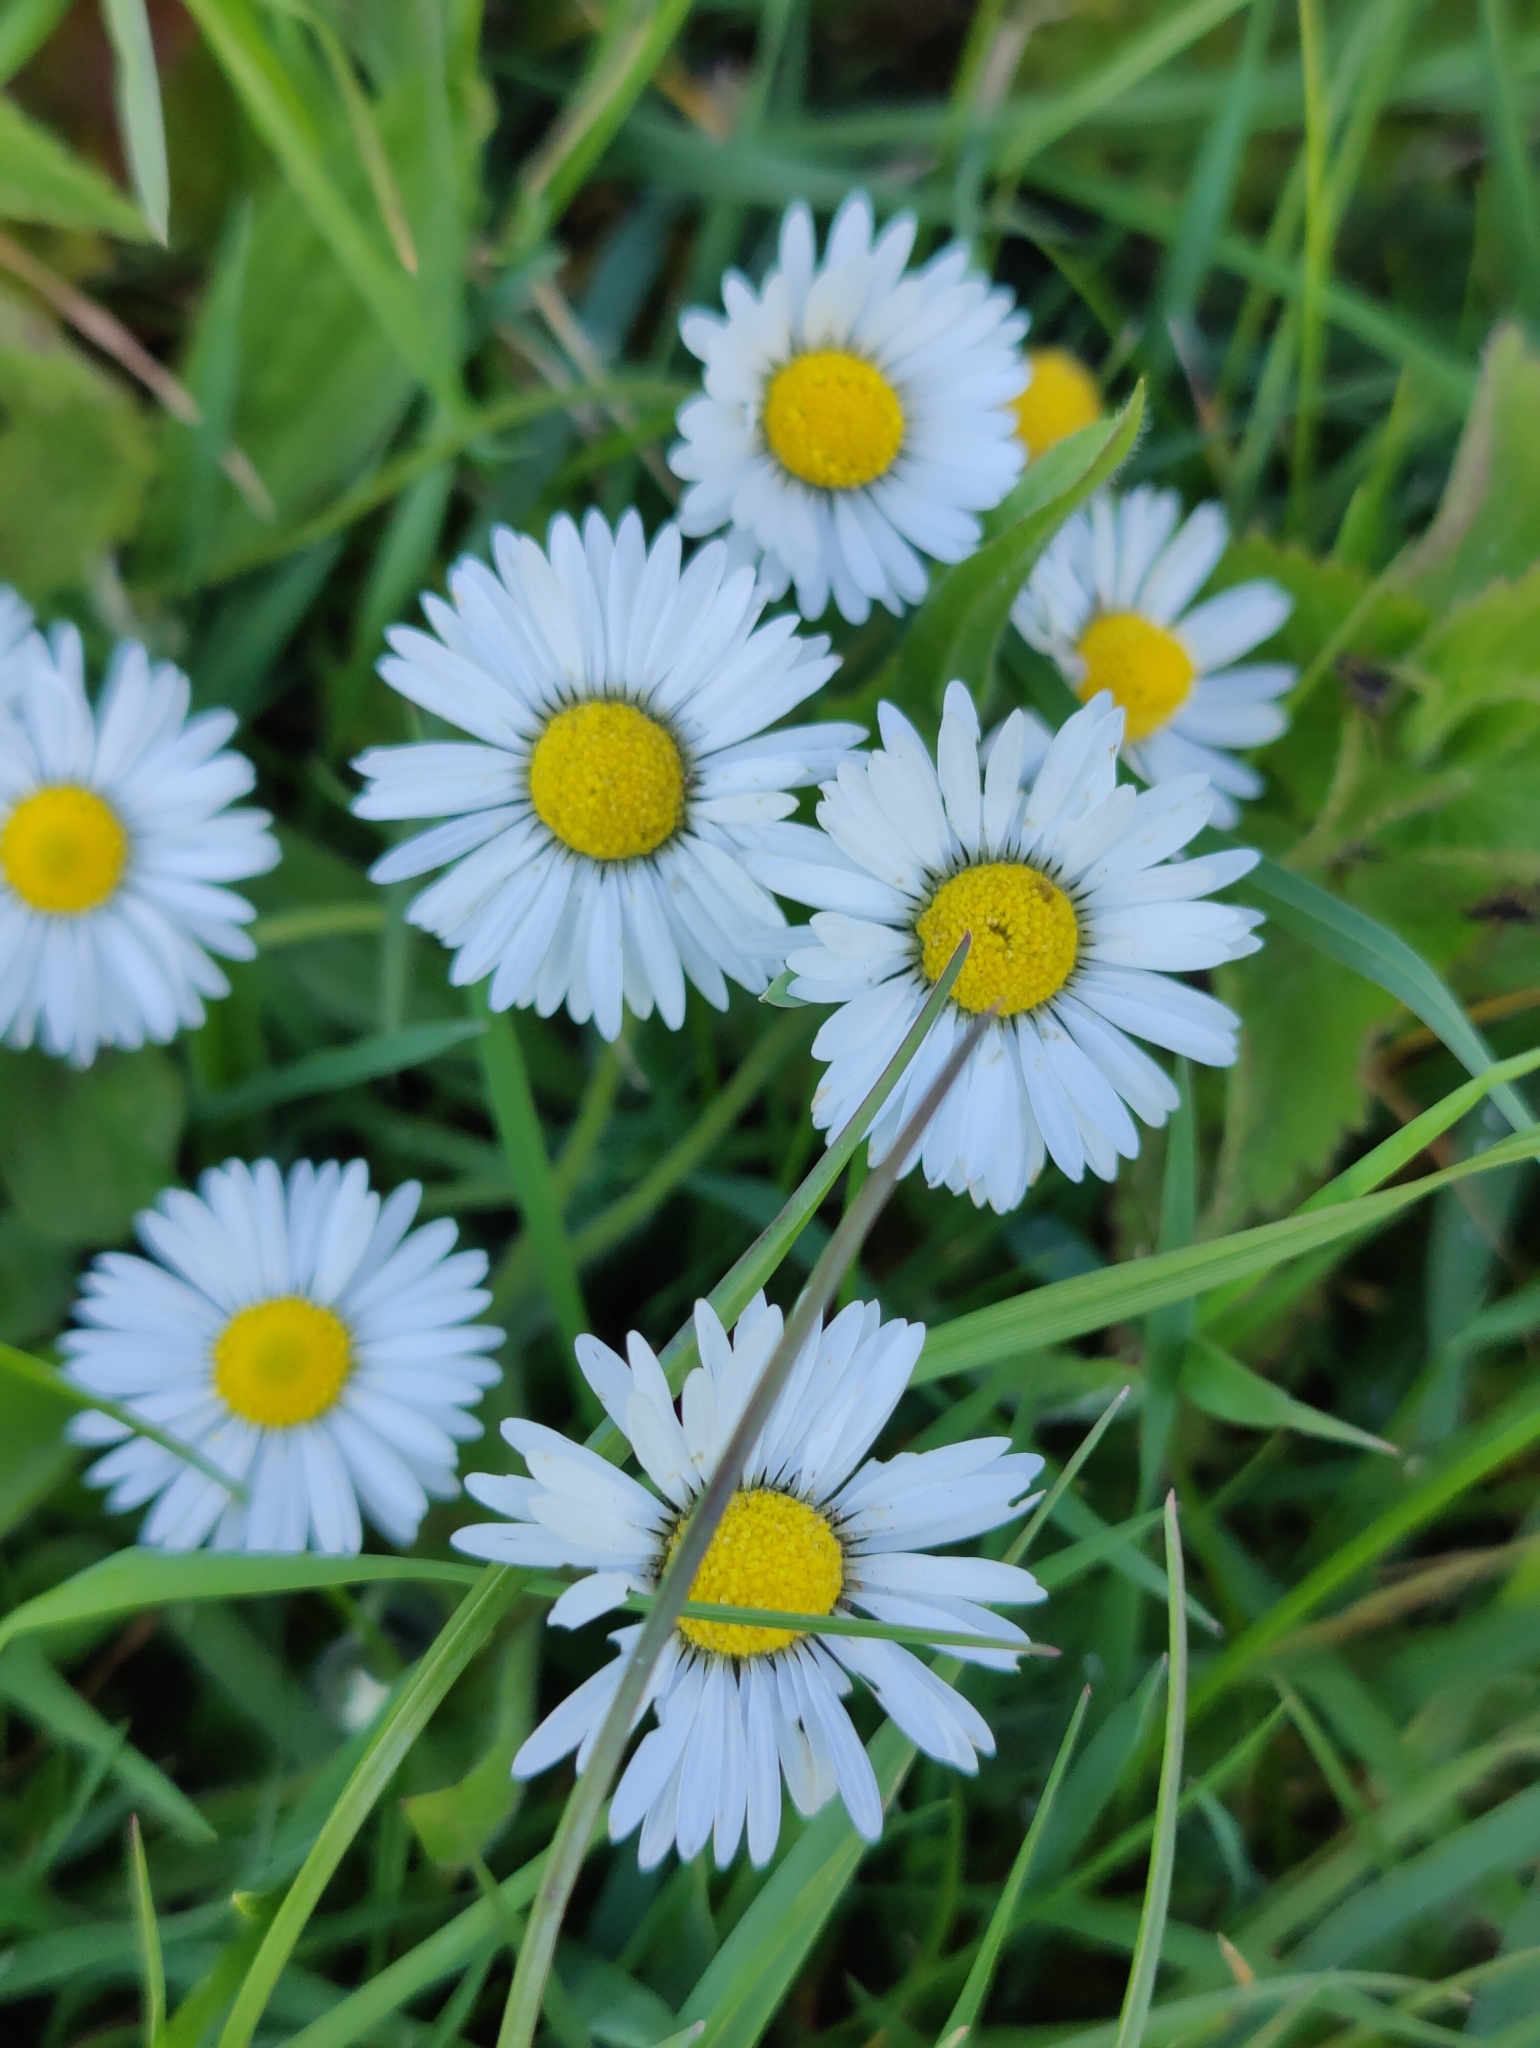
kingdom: Plantae
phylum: Tracheophyta
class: Magnoliopsida
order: Asterales
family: Asteraceae
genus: Bellis
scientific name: Bellis perennis
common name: Lawndaisy
